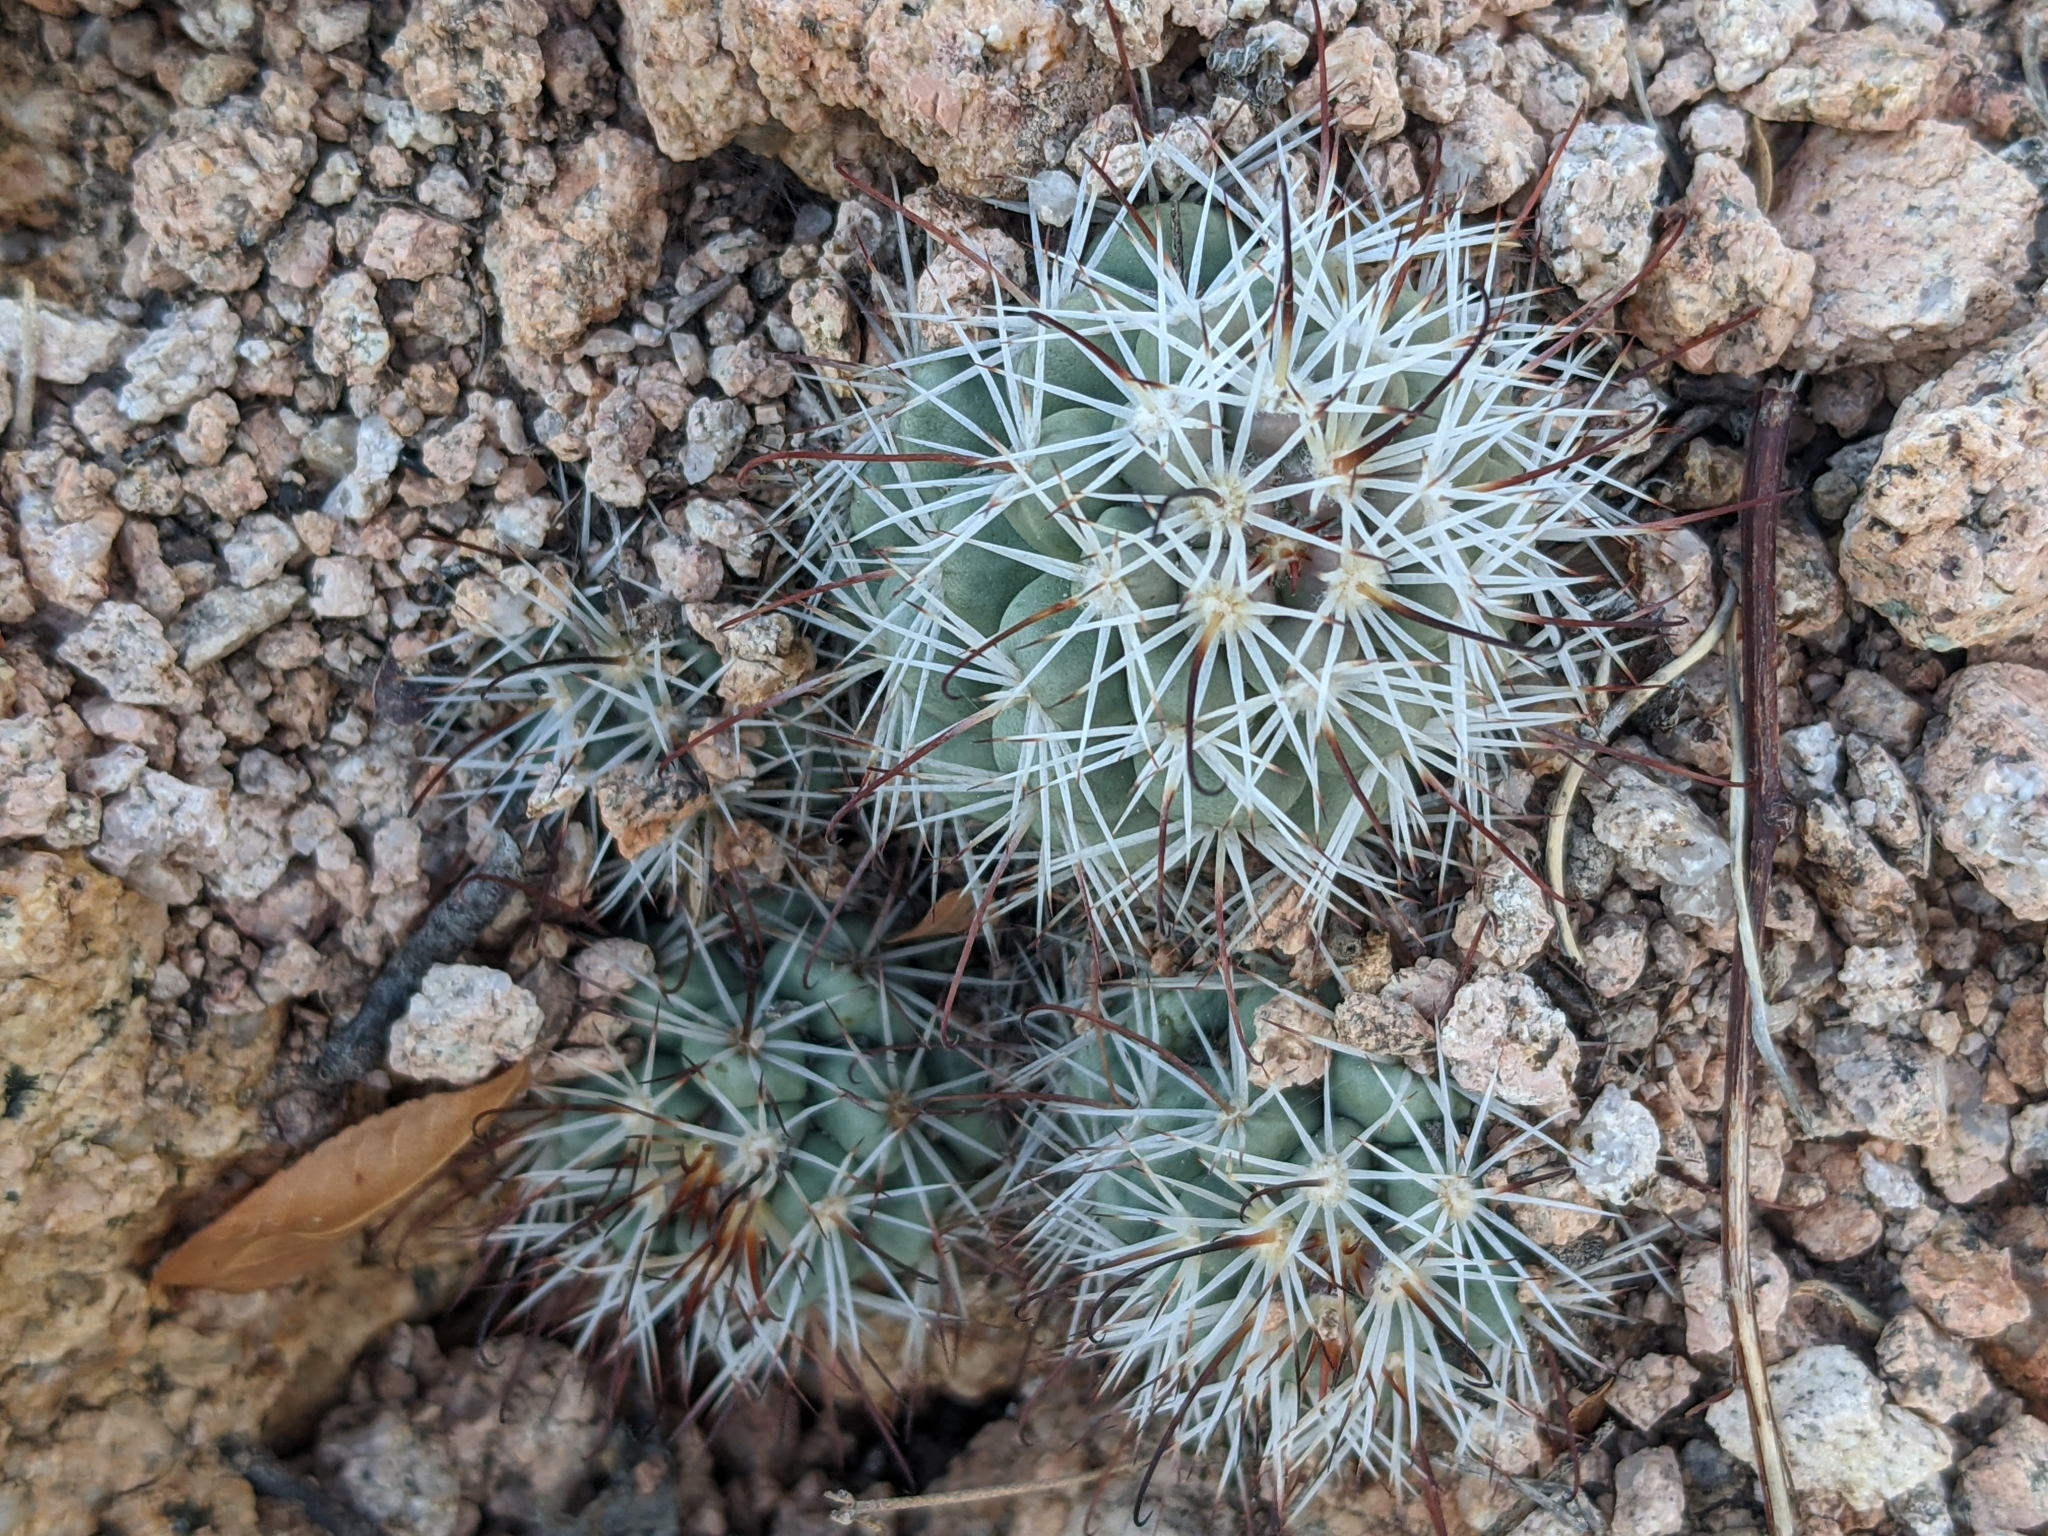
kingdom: Plantae
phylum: Tracheophyta
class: Magnoliopsida
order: Caryophyllales
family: Cactaceae
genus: Cochemiea
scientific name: Cochemiea schumannii
